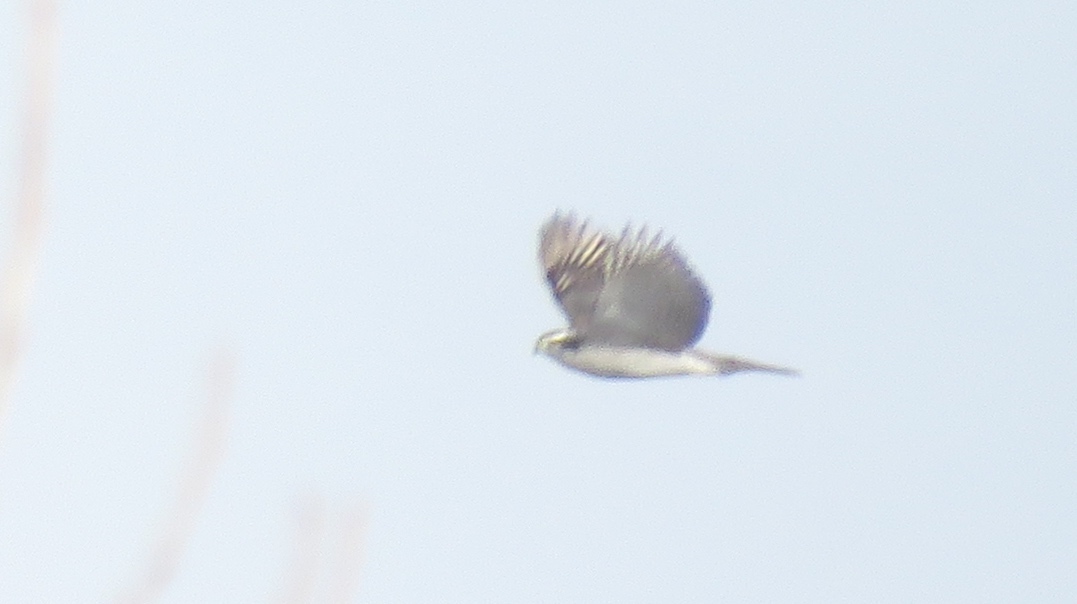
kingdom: Animalia
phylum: Chordata
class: Aves
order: Accipitriformes
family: Accipitridae
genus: Accipiter
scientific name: Accipiter gentilis
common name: Northern goshawk
